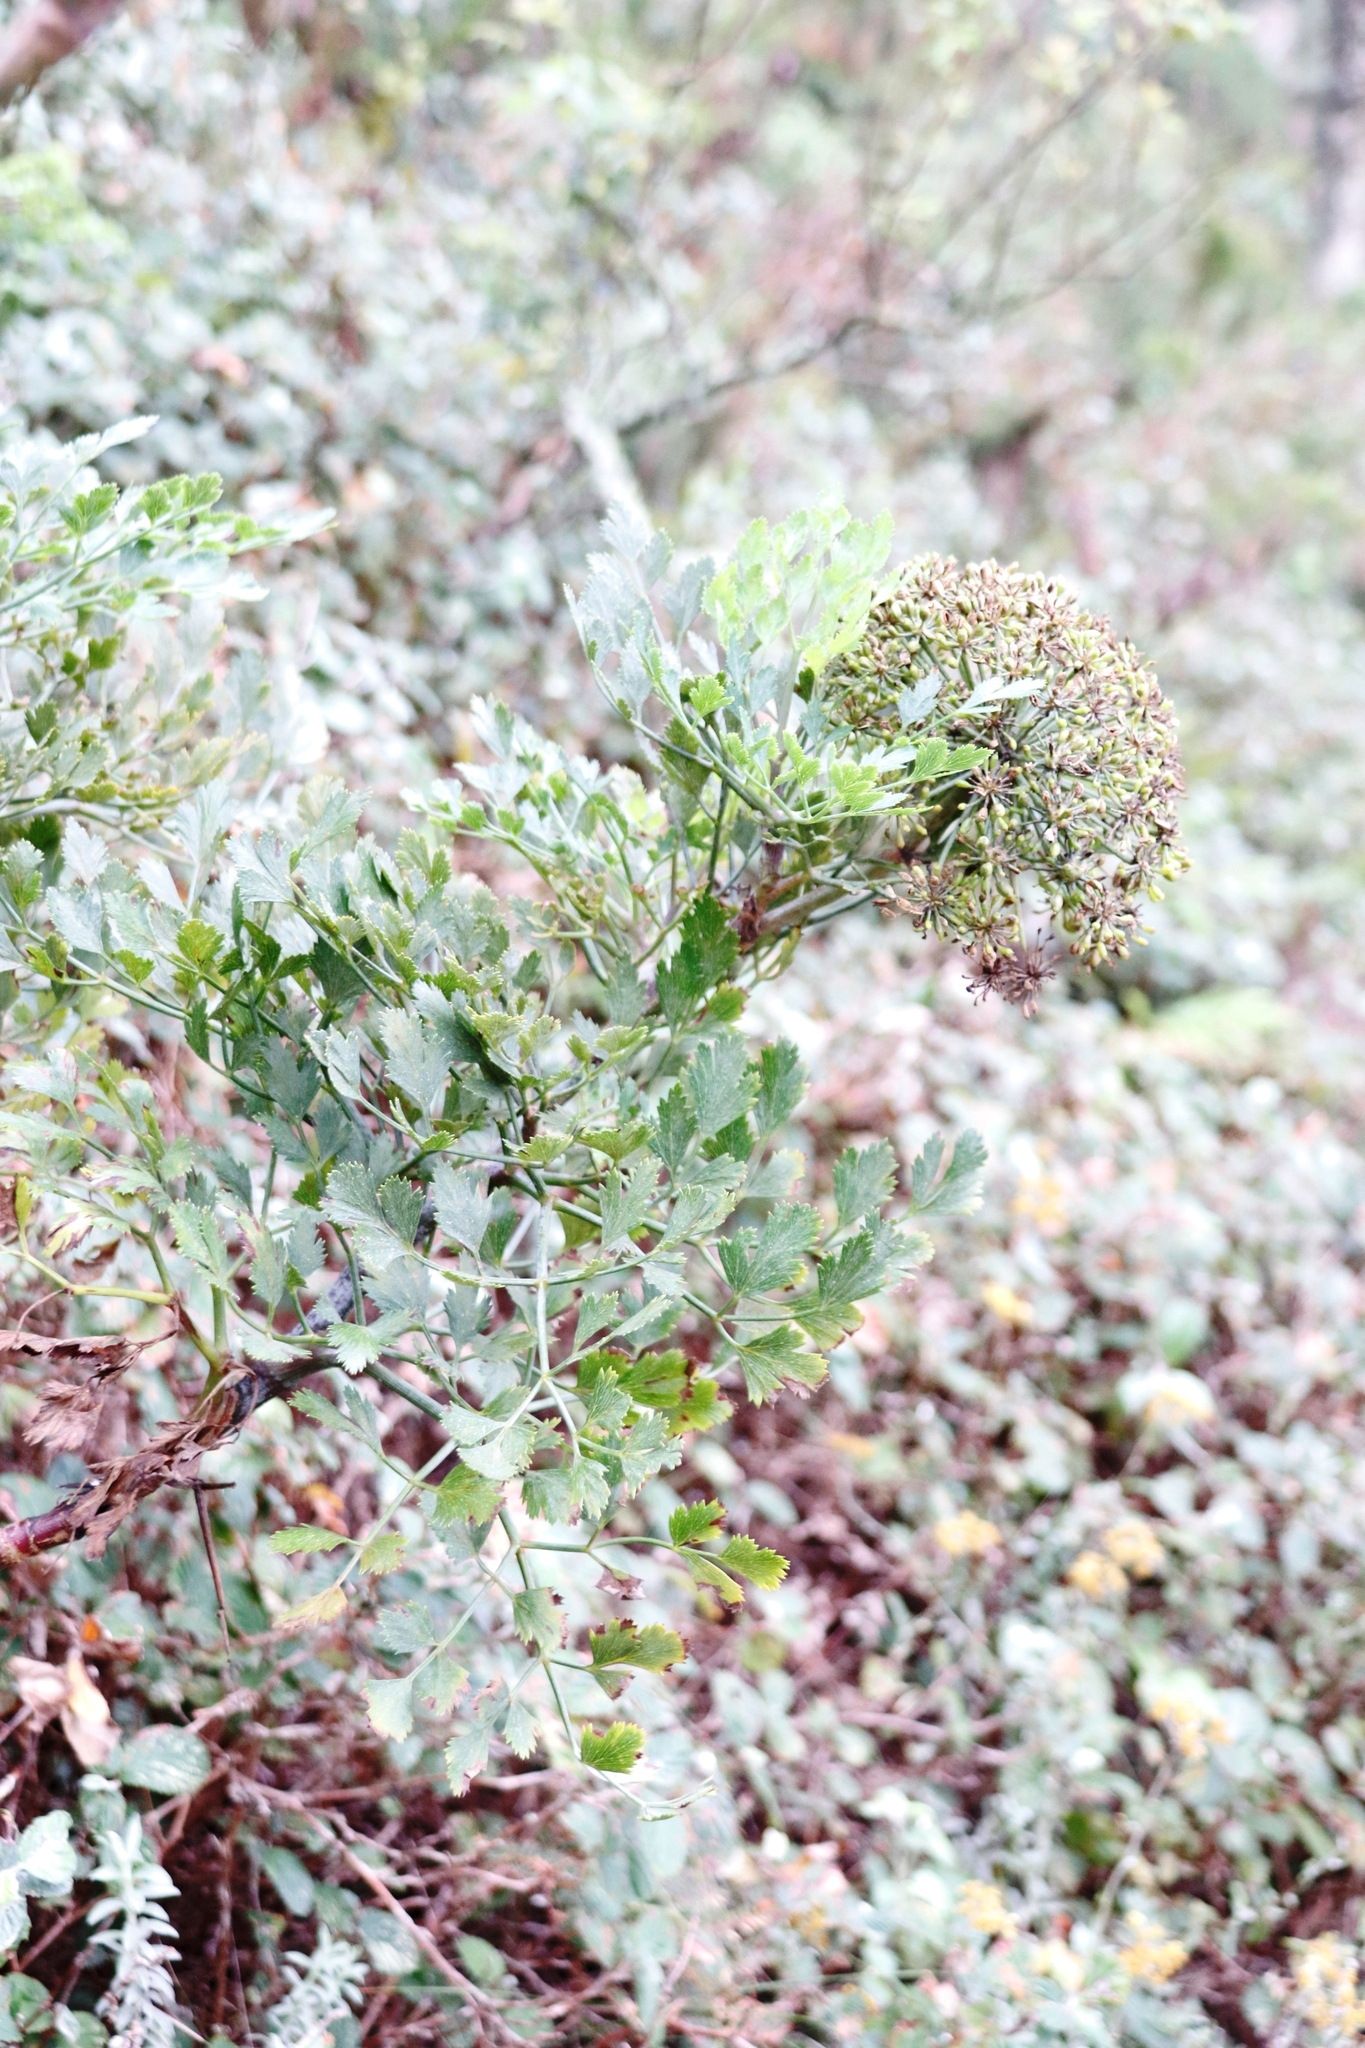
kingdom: Plantae
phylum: Tracheophyta
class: Magnoliopsida
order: Apiales
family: Apiaceae
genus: Notobubon
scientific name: Notobubon galbanum
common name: Blisterbush
